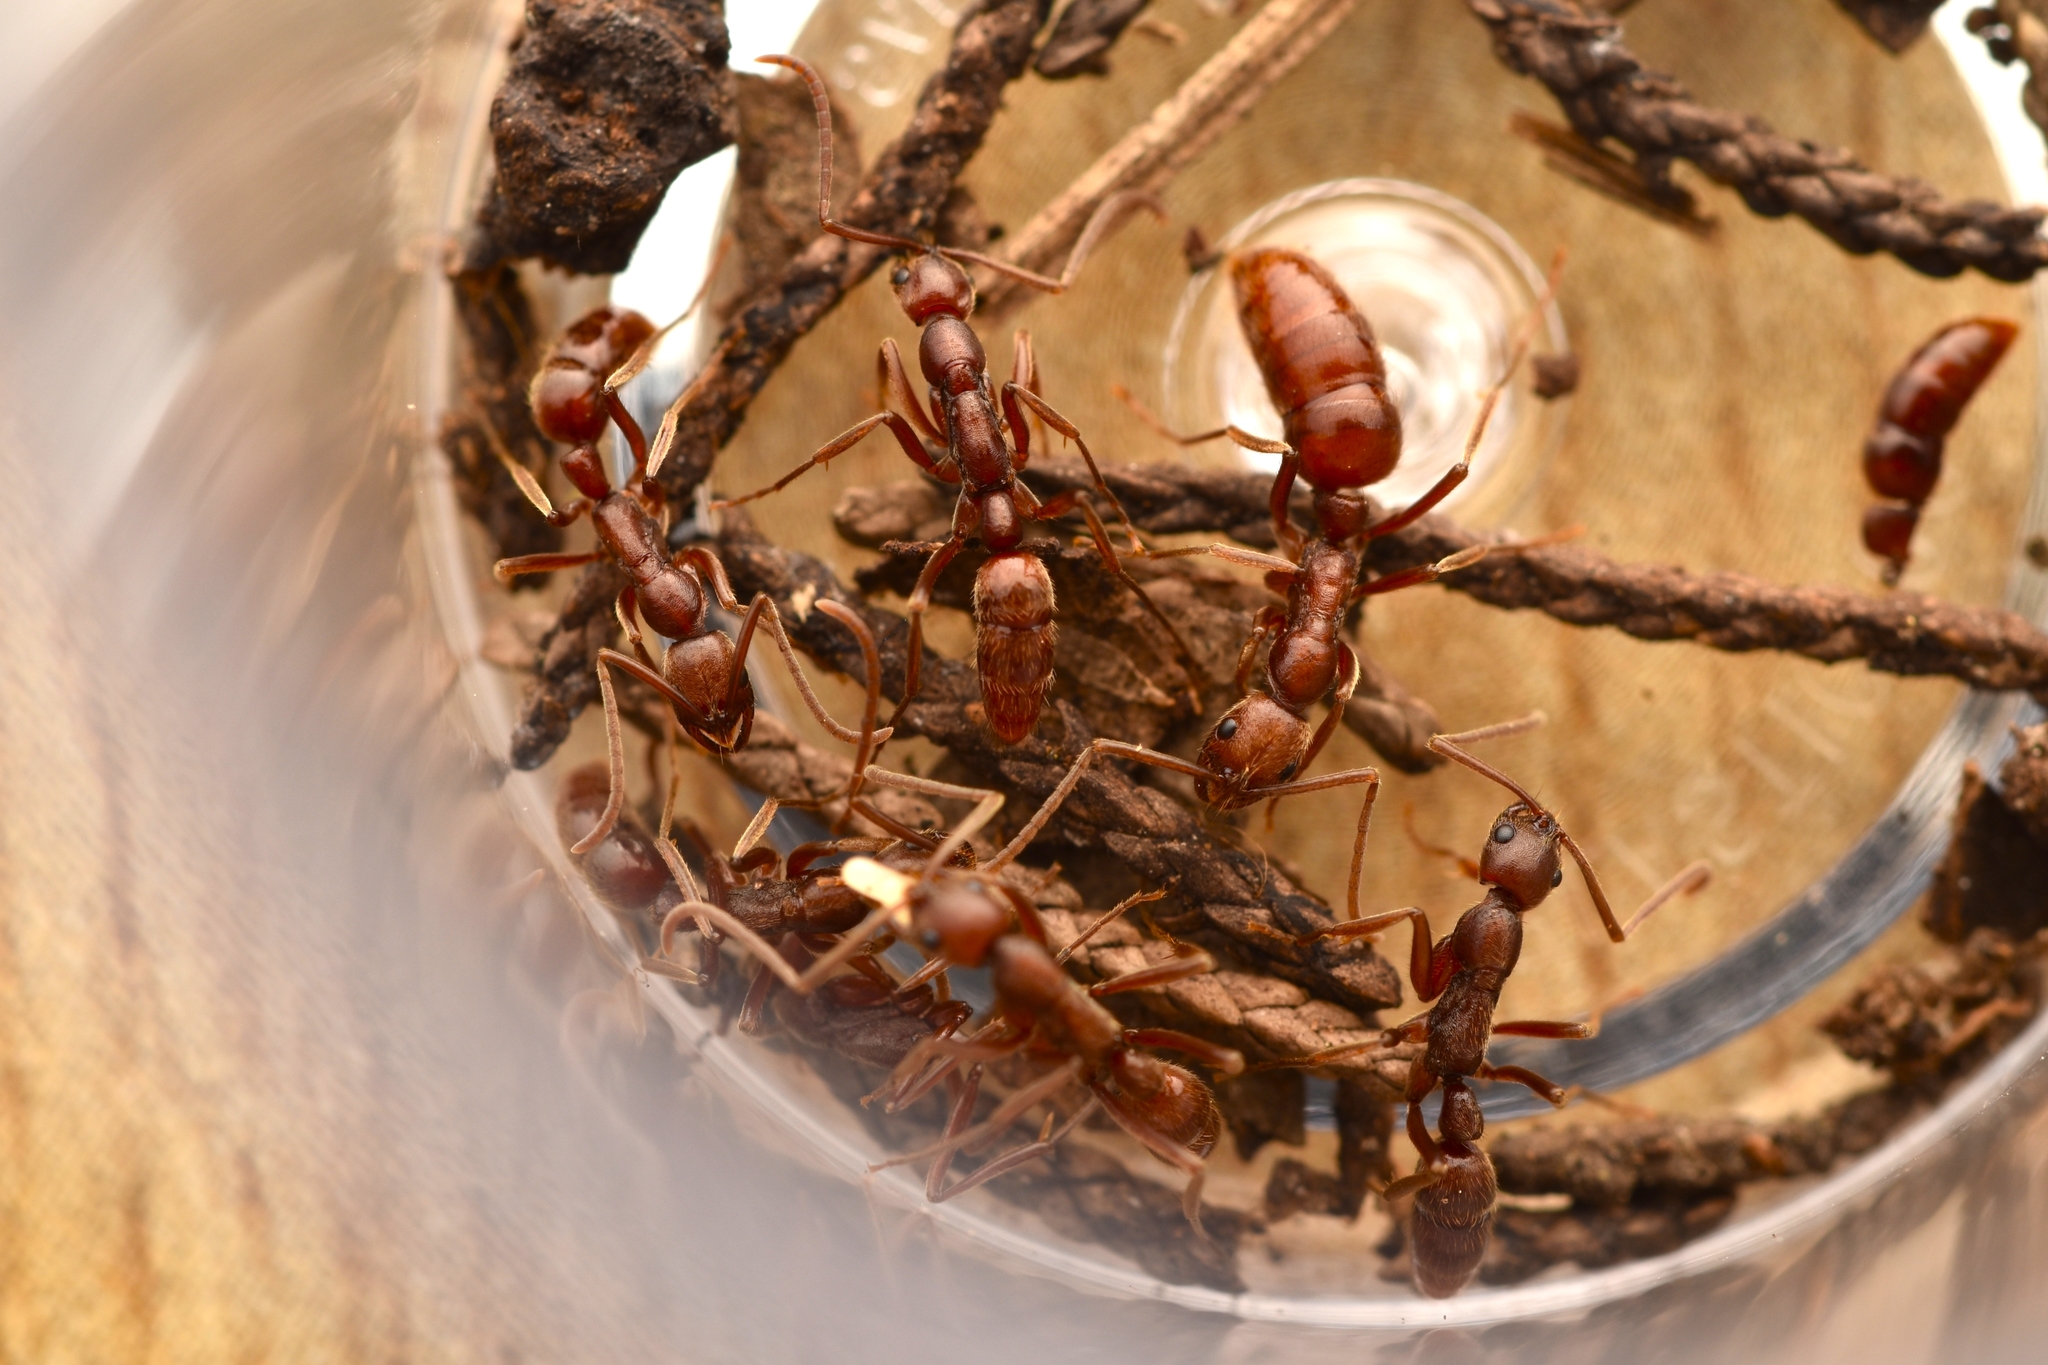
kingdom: Animalia
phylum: Arthropoda
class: Insecta
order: Hymenoptera
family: Formicidae
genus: Leptogenys
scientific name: Leptogenys elongata
